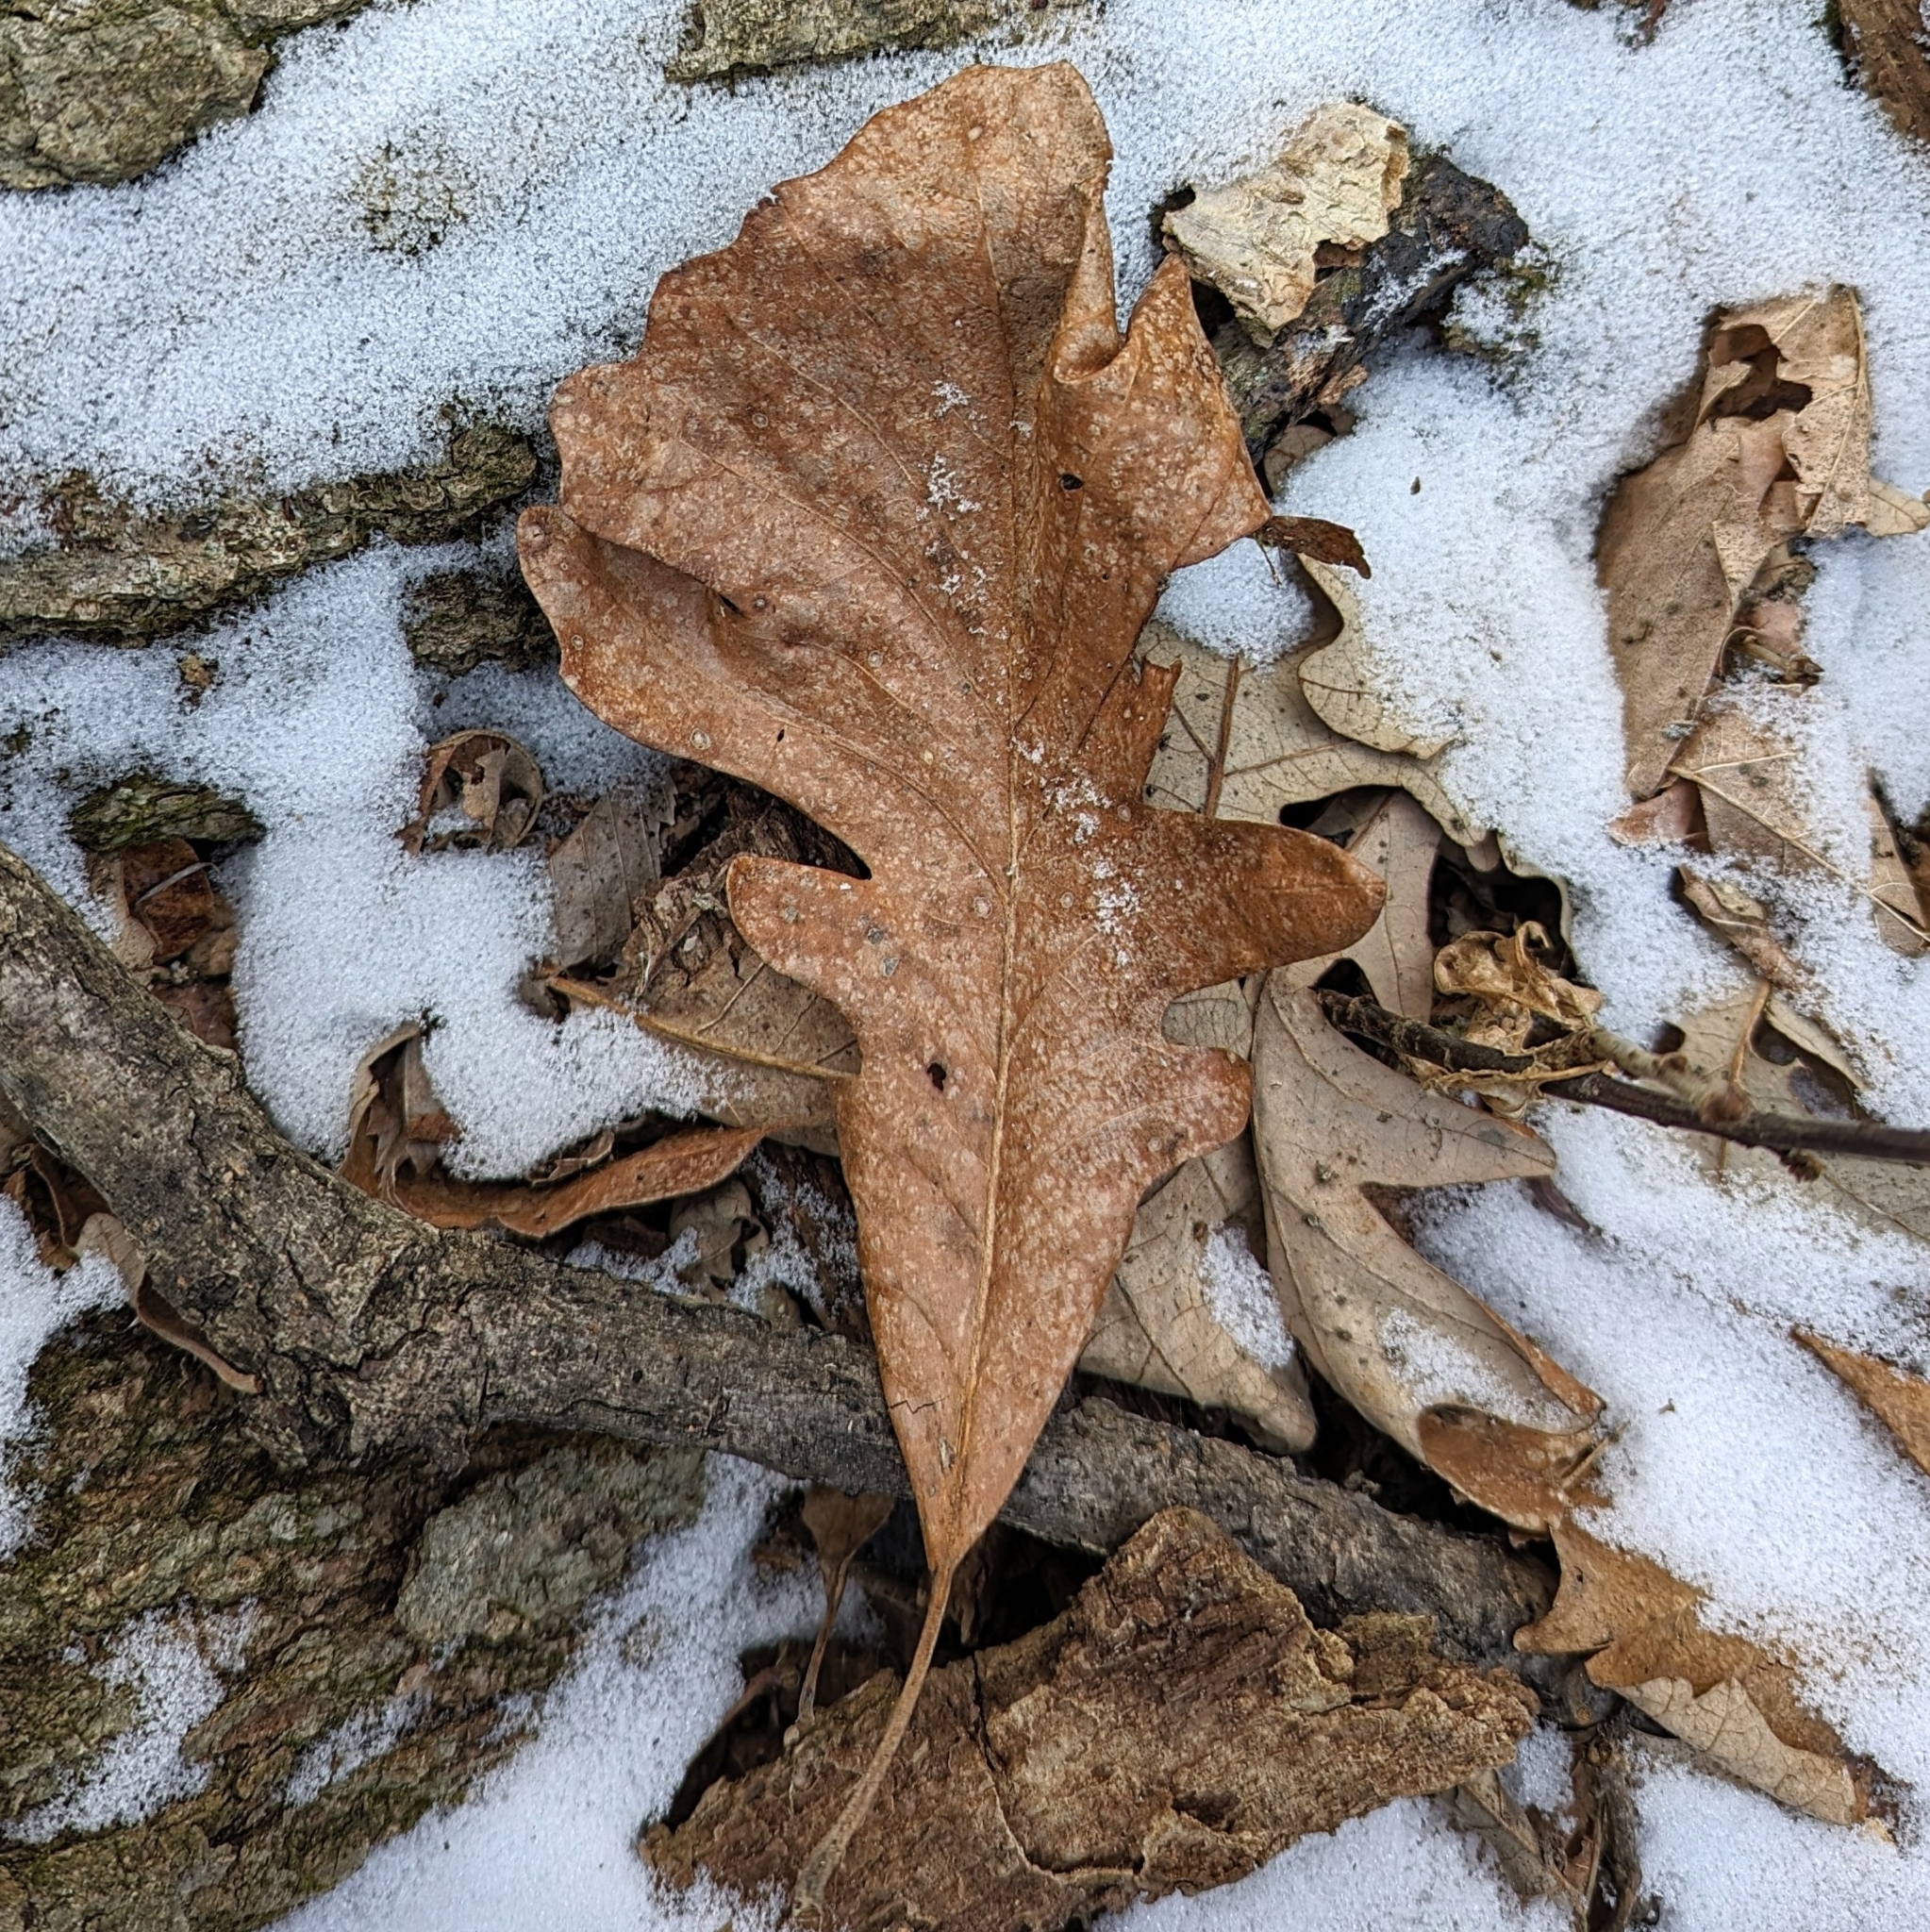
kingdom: Plantae
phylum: Tracheophyta
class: Magnoliopsida
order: Fagales
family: Fagaceae
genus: Quercus
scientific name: Quercus macrocarpa
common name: Bur oak
